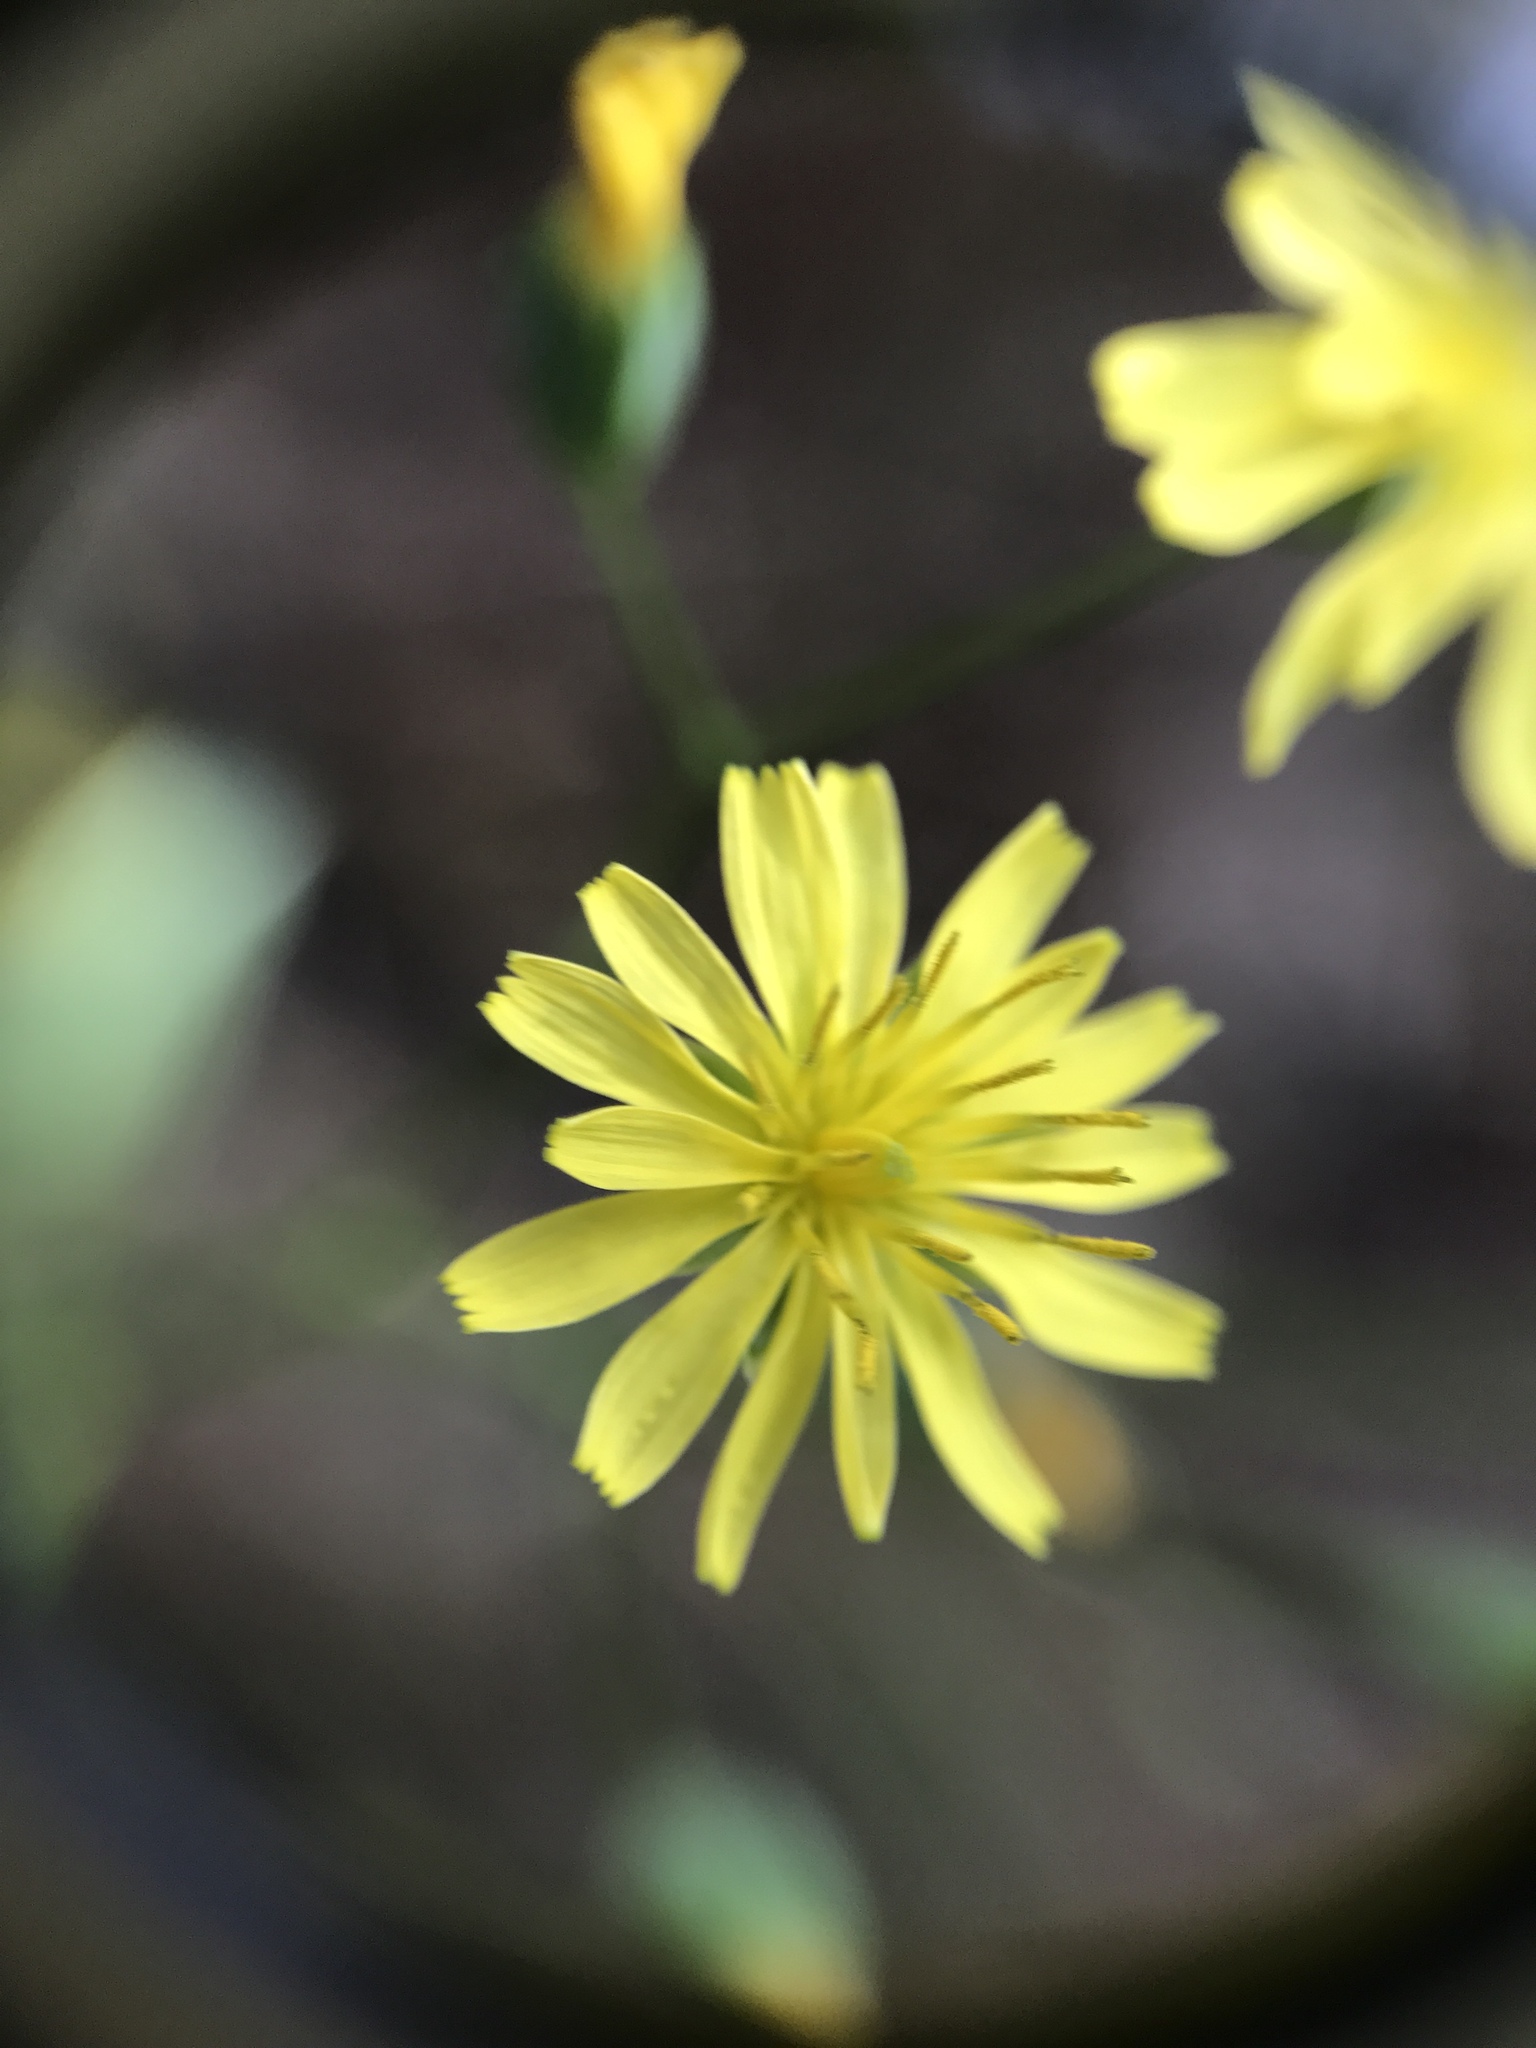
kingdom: Plantae
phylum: Tracheophyta
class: Magnoliopsida
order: Asterales
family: Asteraceae
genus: Lapsana
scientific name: Lapsana communis
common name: Nipplewort
